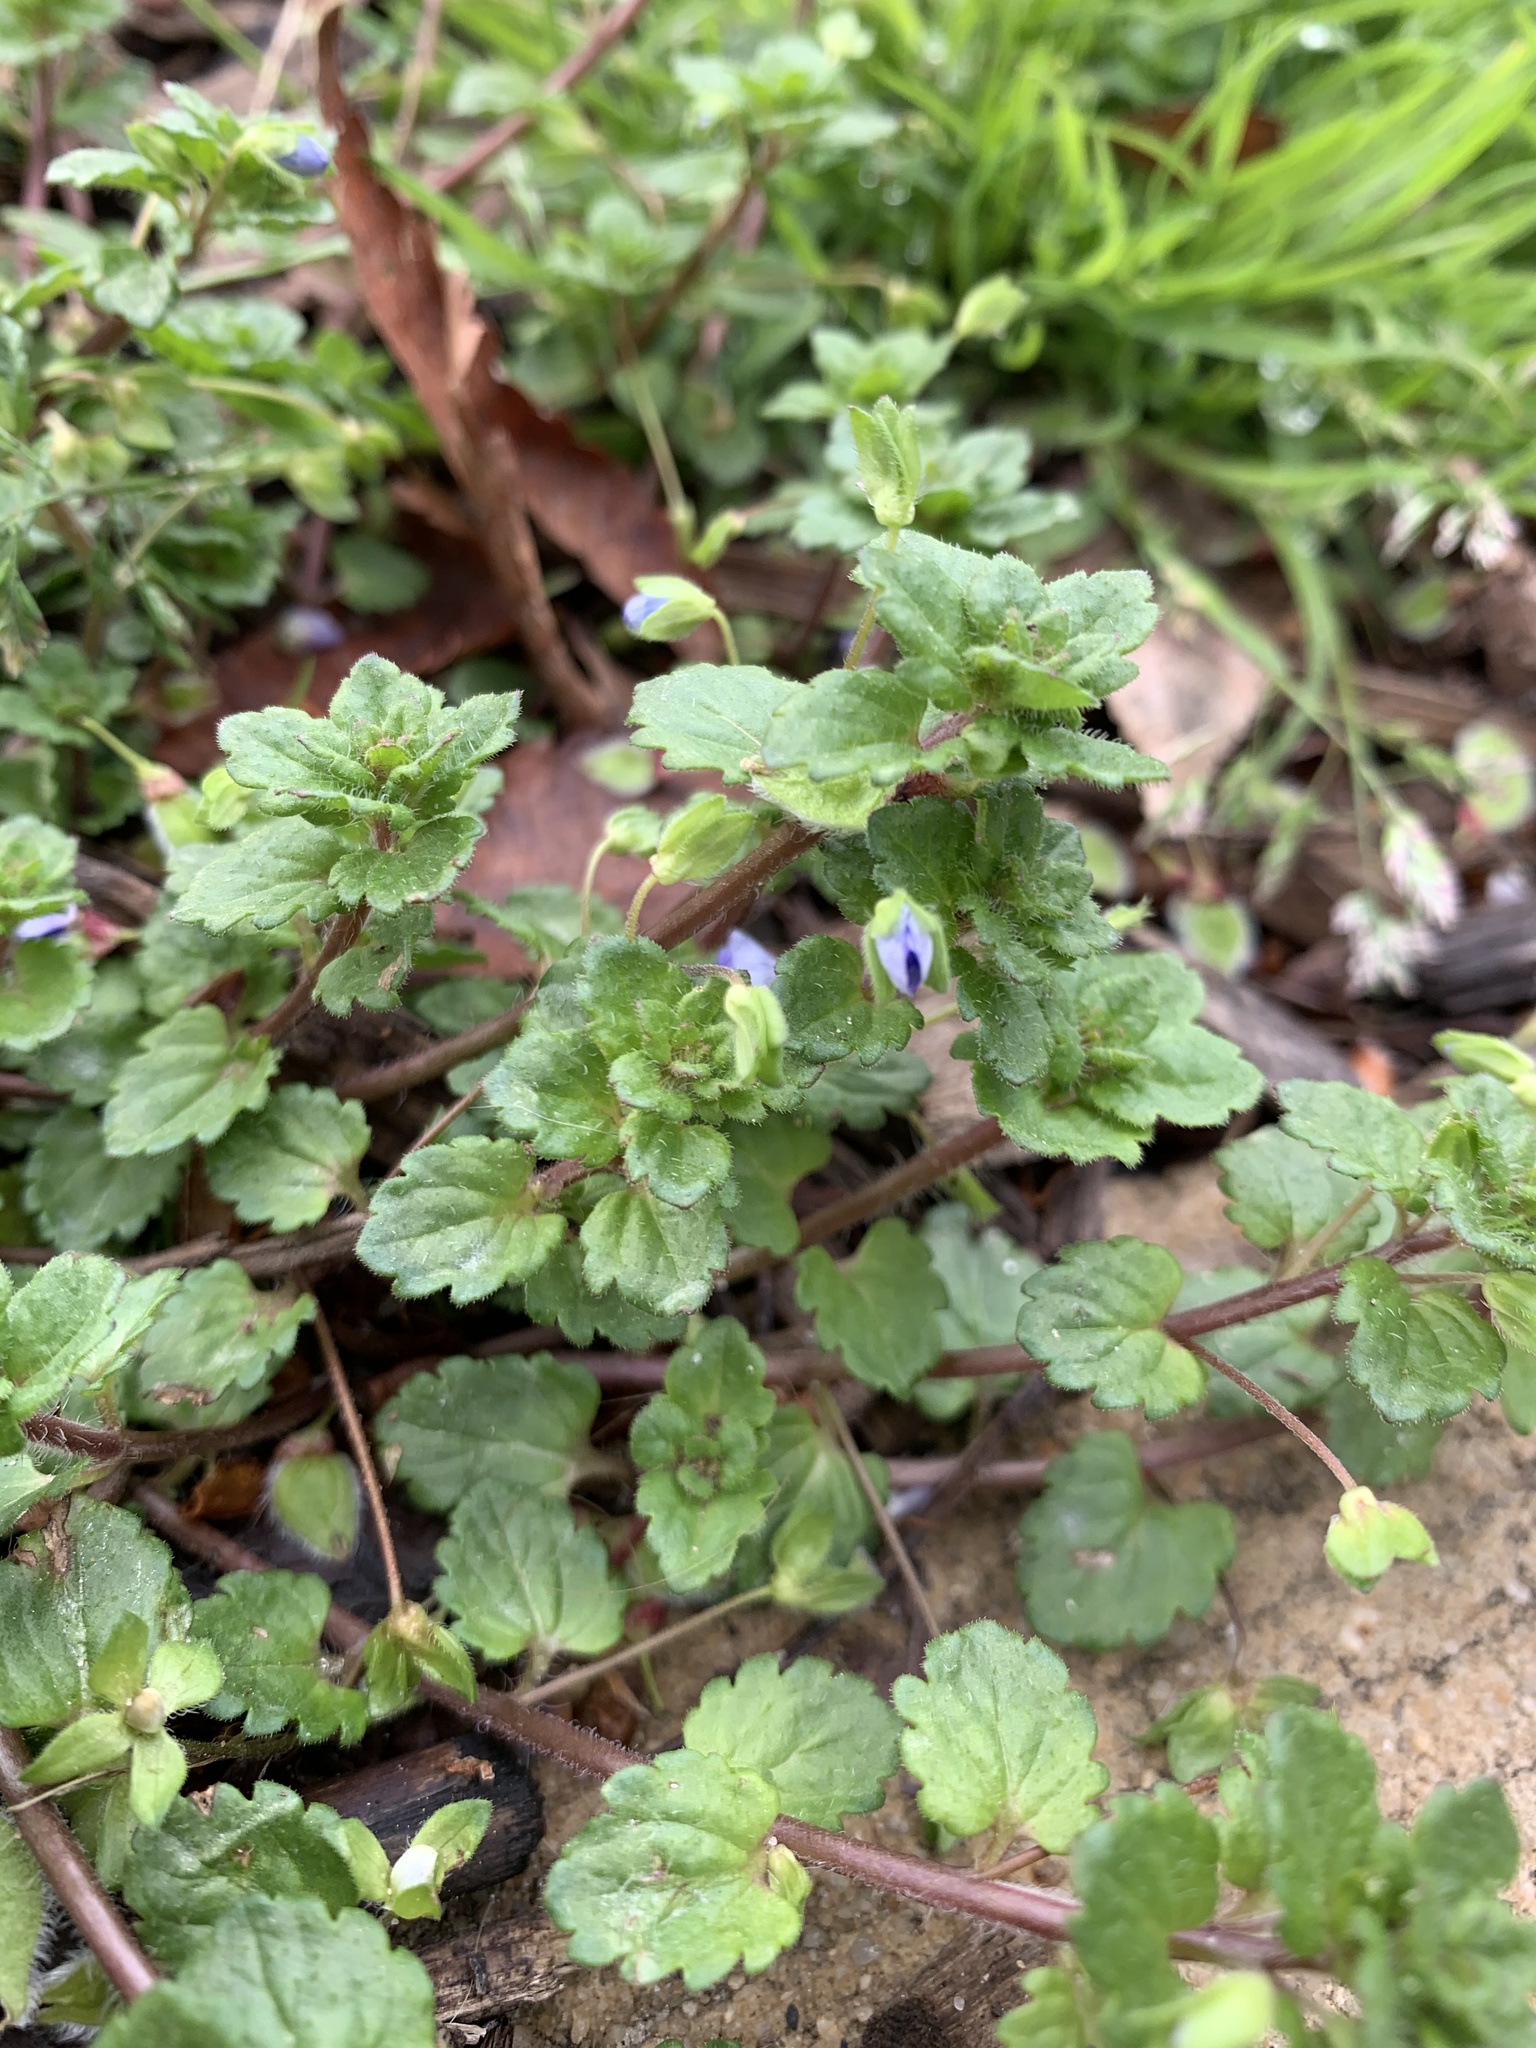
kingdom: Plantae
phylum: Tracheophyta
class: Magnoliopsida
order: Lamiales
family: Plantaginaceae
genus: Veronica
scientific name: Veronica persica
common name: Common field-speedwell
